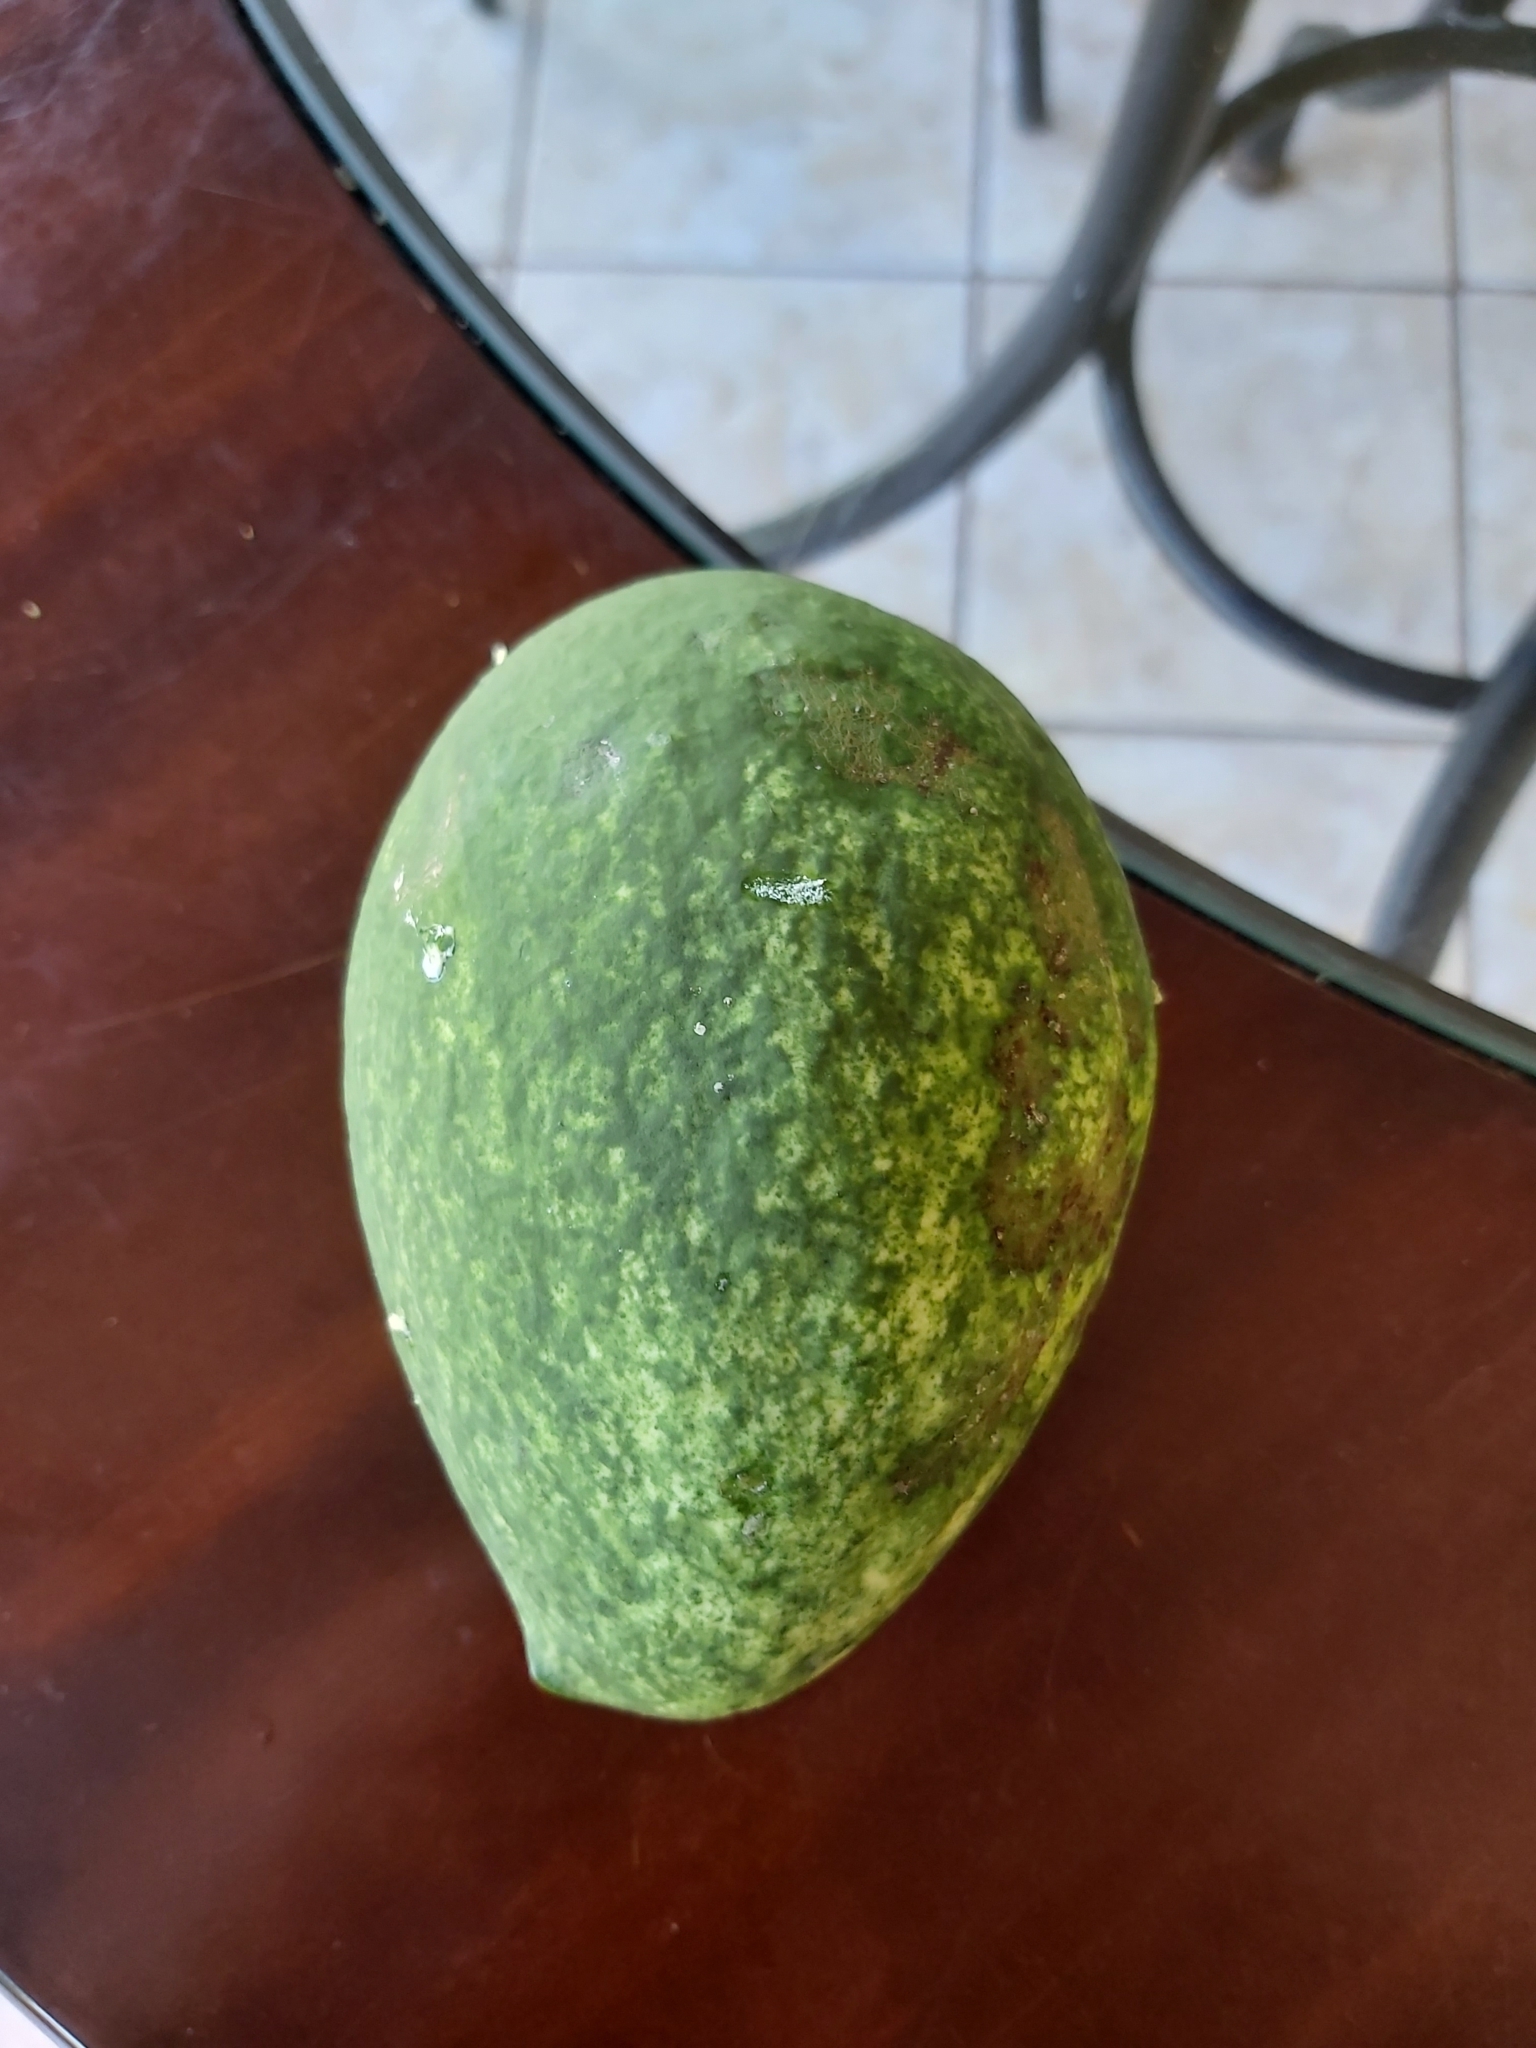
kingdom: Plantae
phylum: Tracheophyta
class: Magnoliopsida
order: Gentianales
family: Apocynaceae
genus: Gonolobus
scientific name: Gonolobus edulis
